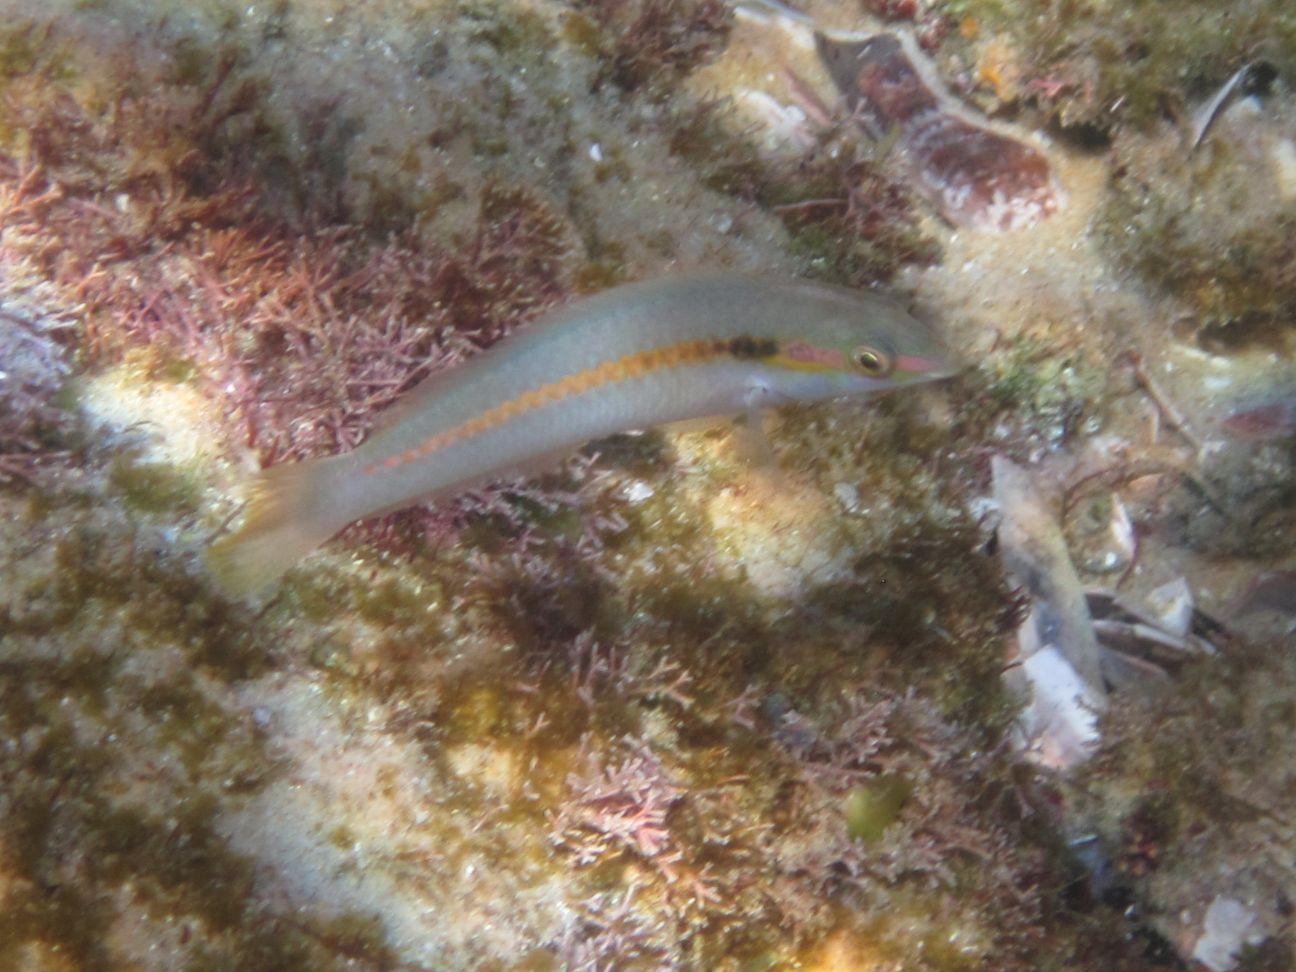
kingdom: Animalia
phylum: Chordata
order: Perciformes
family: Labridae
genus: Halichoeres
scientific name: Halichoeres scapularis
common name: Brownbanded wrasse
